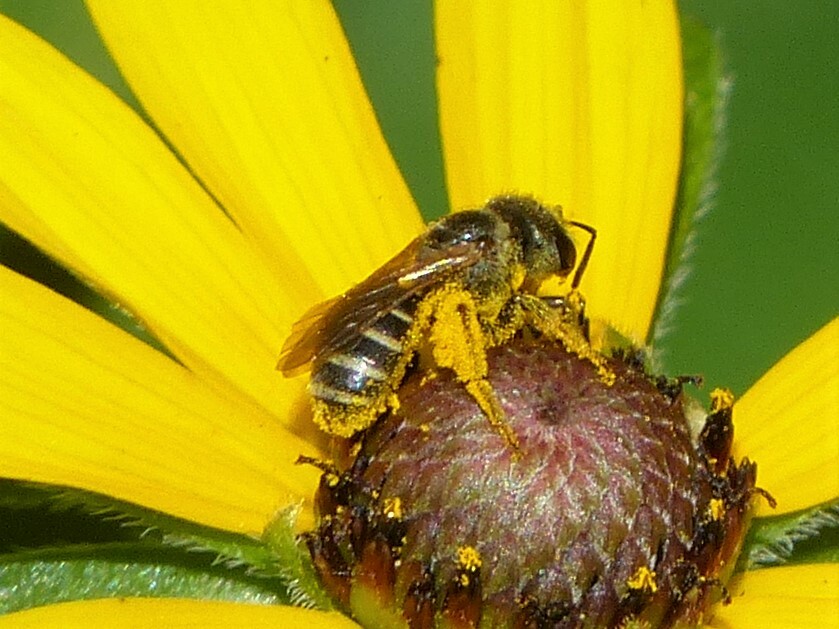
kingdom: Animalia
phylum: Arthropoda
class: Insecta
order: Hymenoptera
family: Halictidae
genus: Halictus
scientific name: Halictus ligatus
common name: Ligated furrow bee
